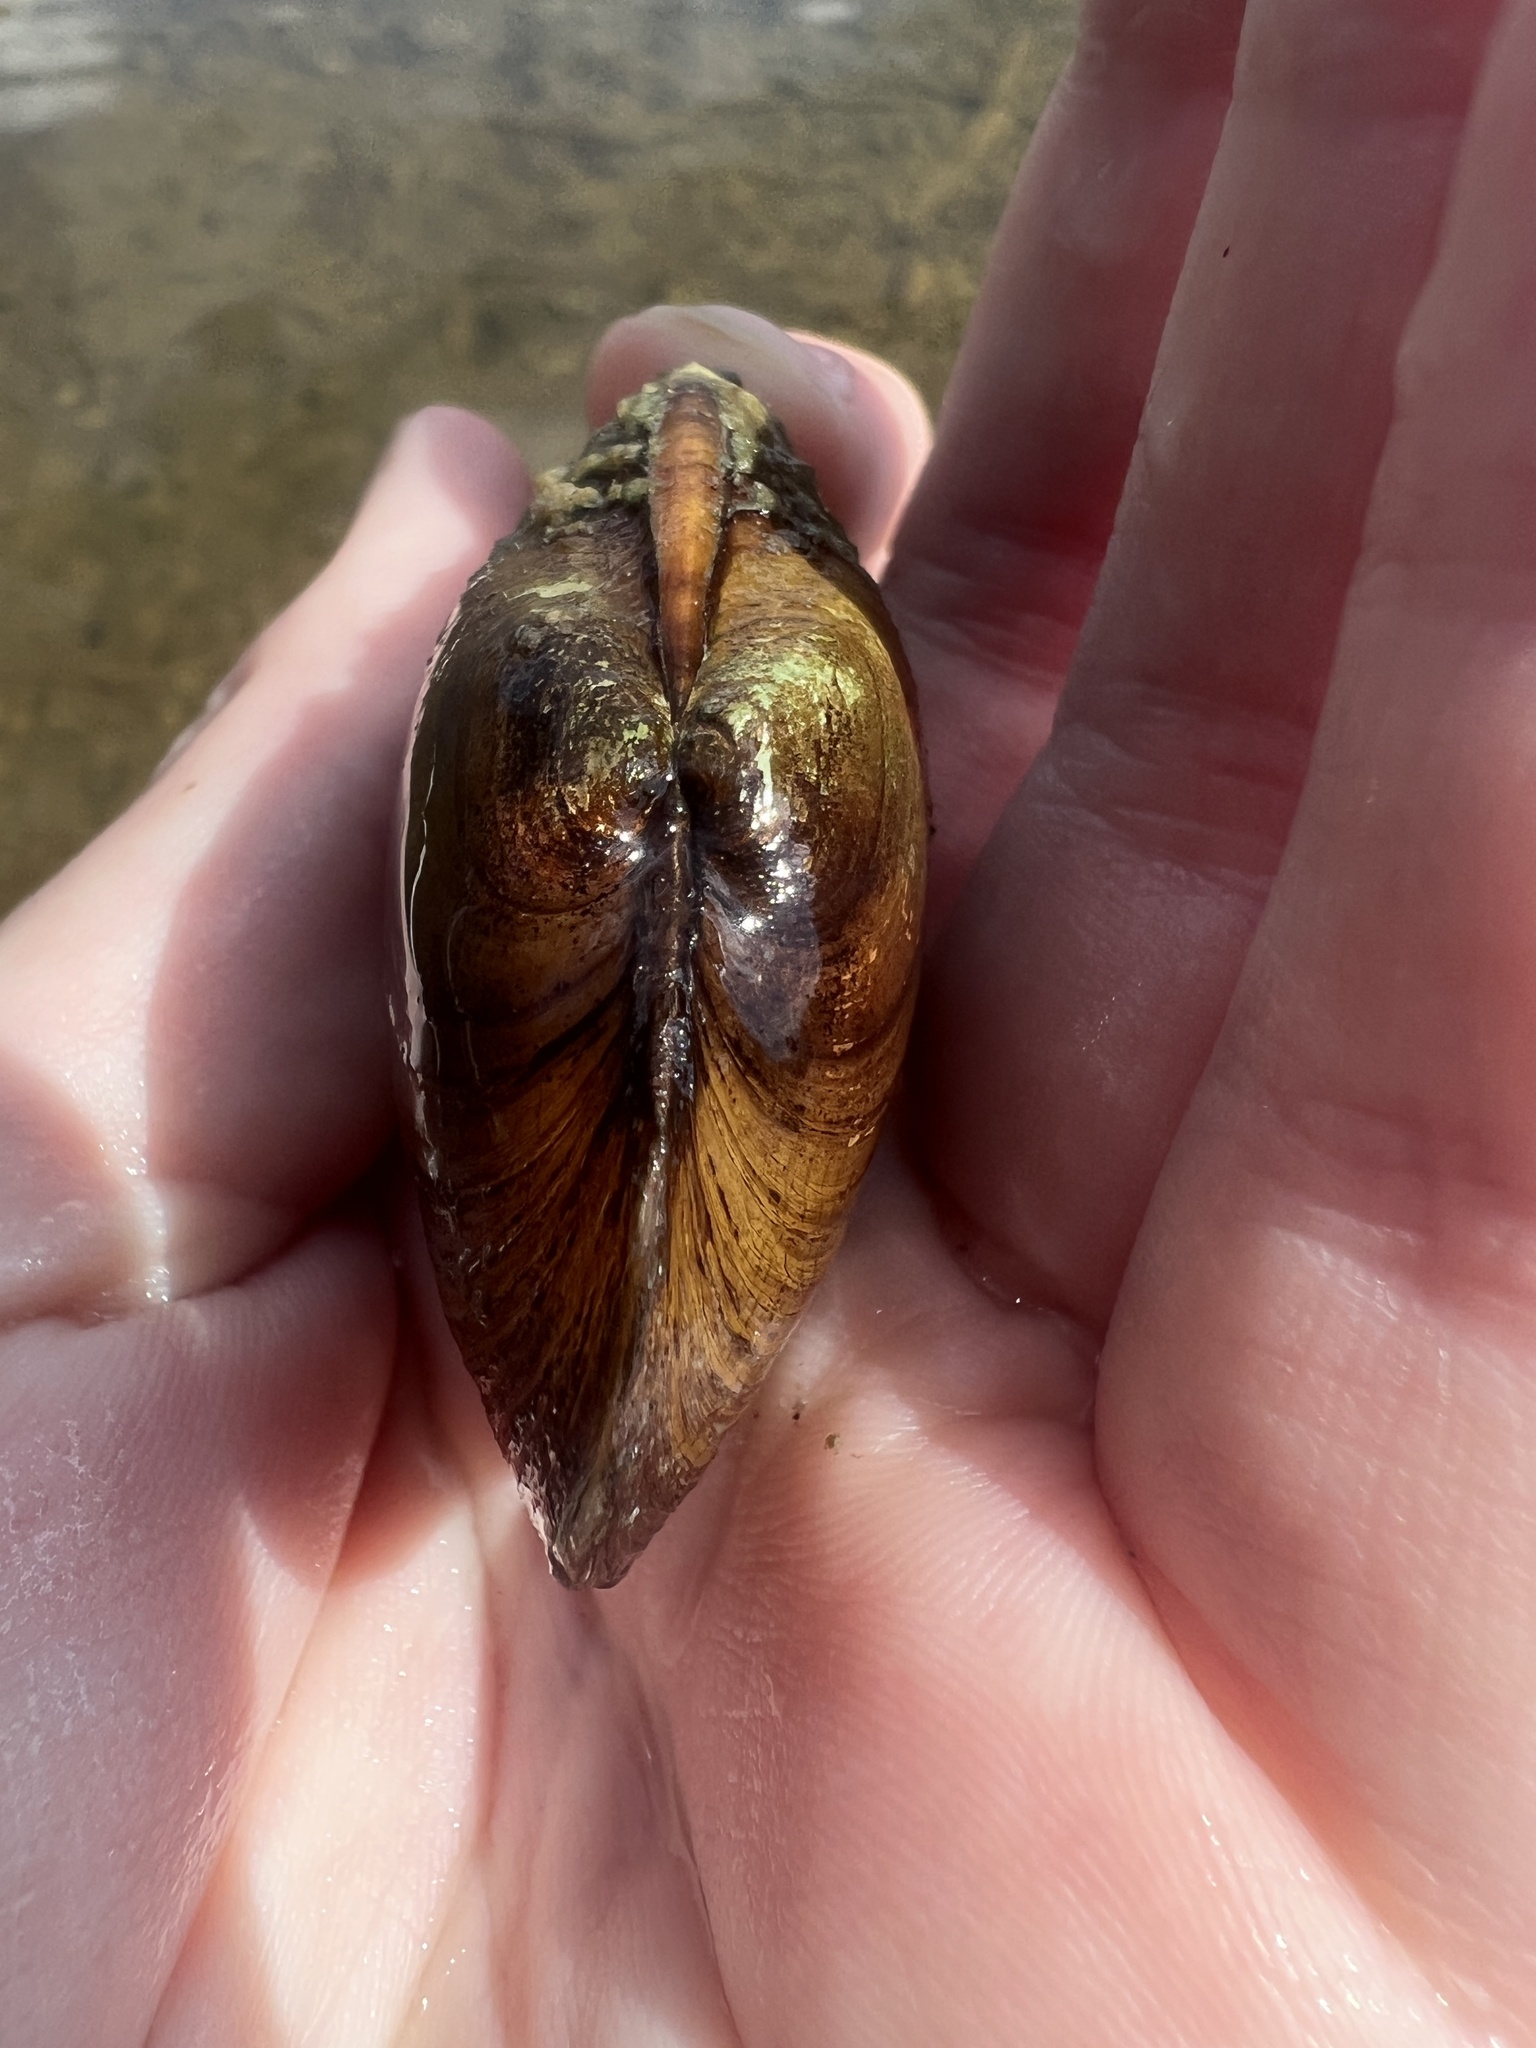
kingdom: Animalia
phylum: Mollusca
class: Bivalvia
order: Unionida
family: Unionidae
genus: Lampsilis
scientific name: Lampsilis siliquoidea
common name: Fatmucket
